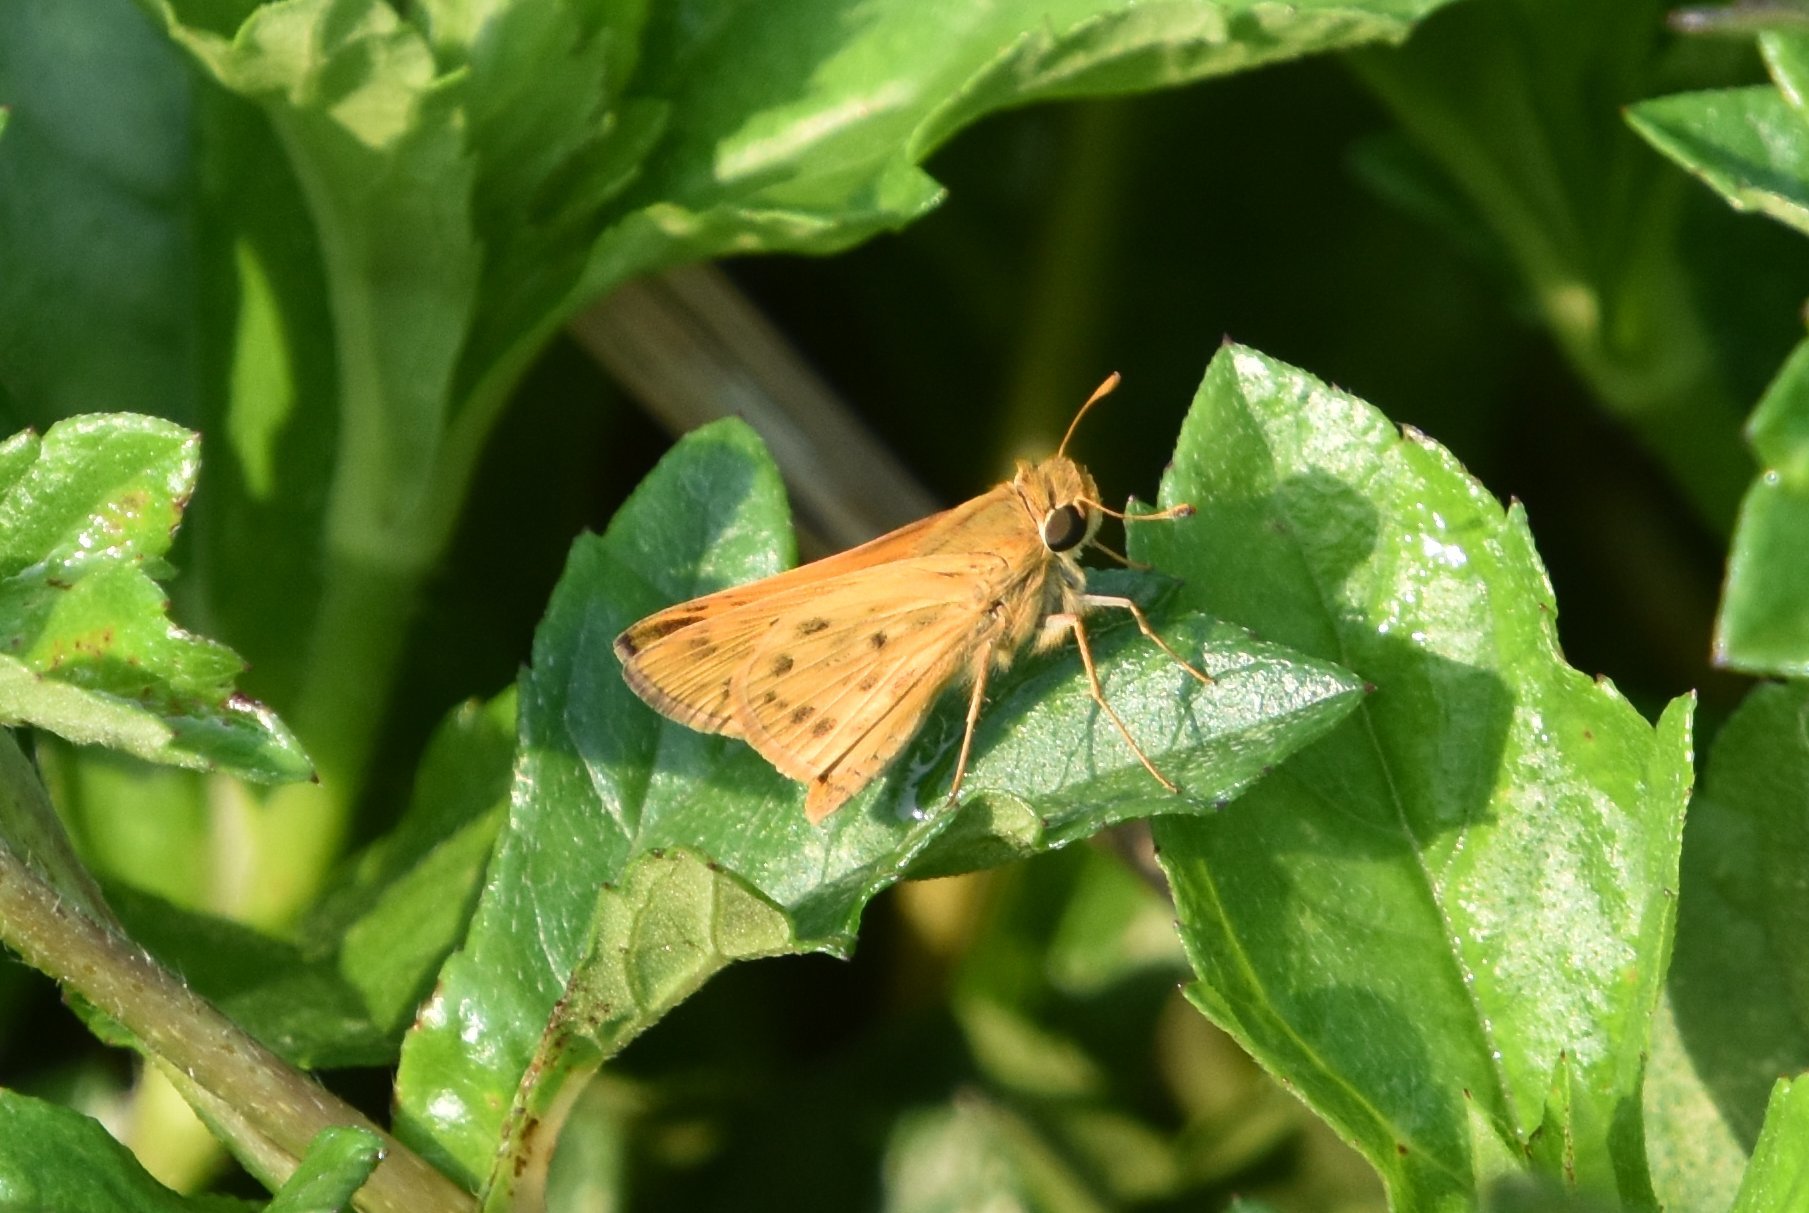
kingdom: Animalia
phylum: Arthropoda
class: Insecta
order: Lepidoptera
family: Hesperiidae
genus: Hylephila
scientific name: Hylephila phyleus
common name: Fiery skipper
